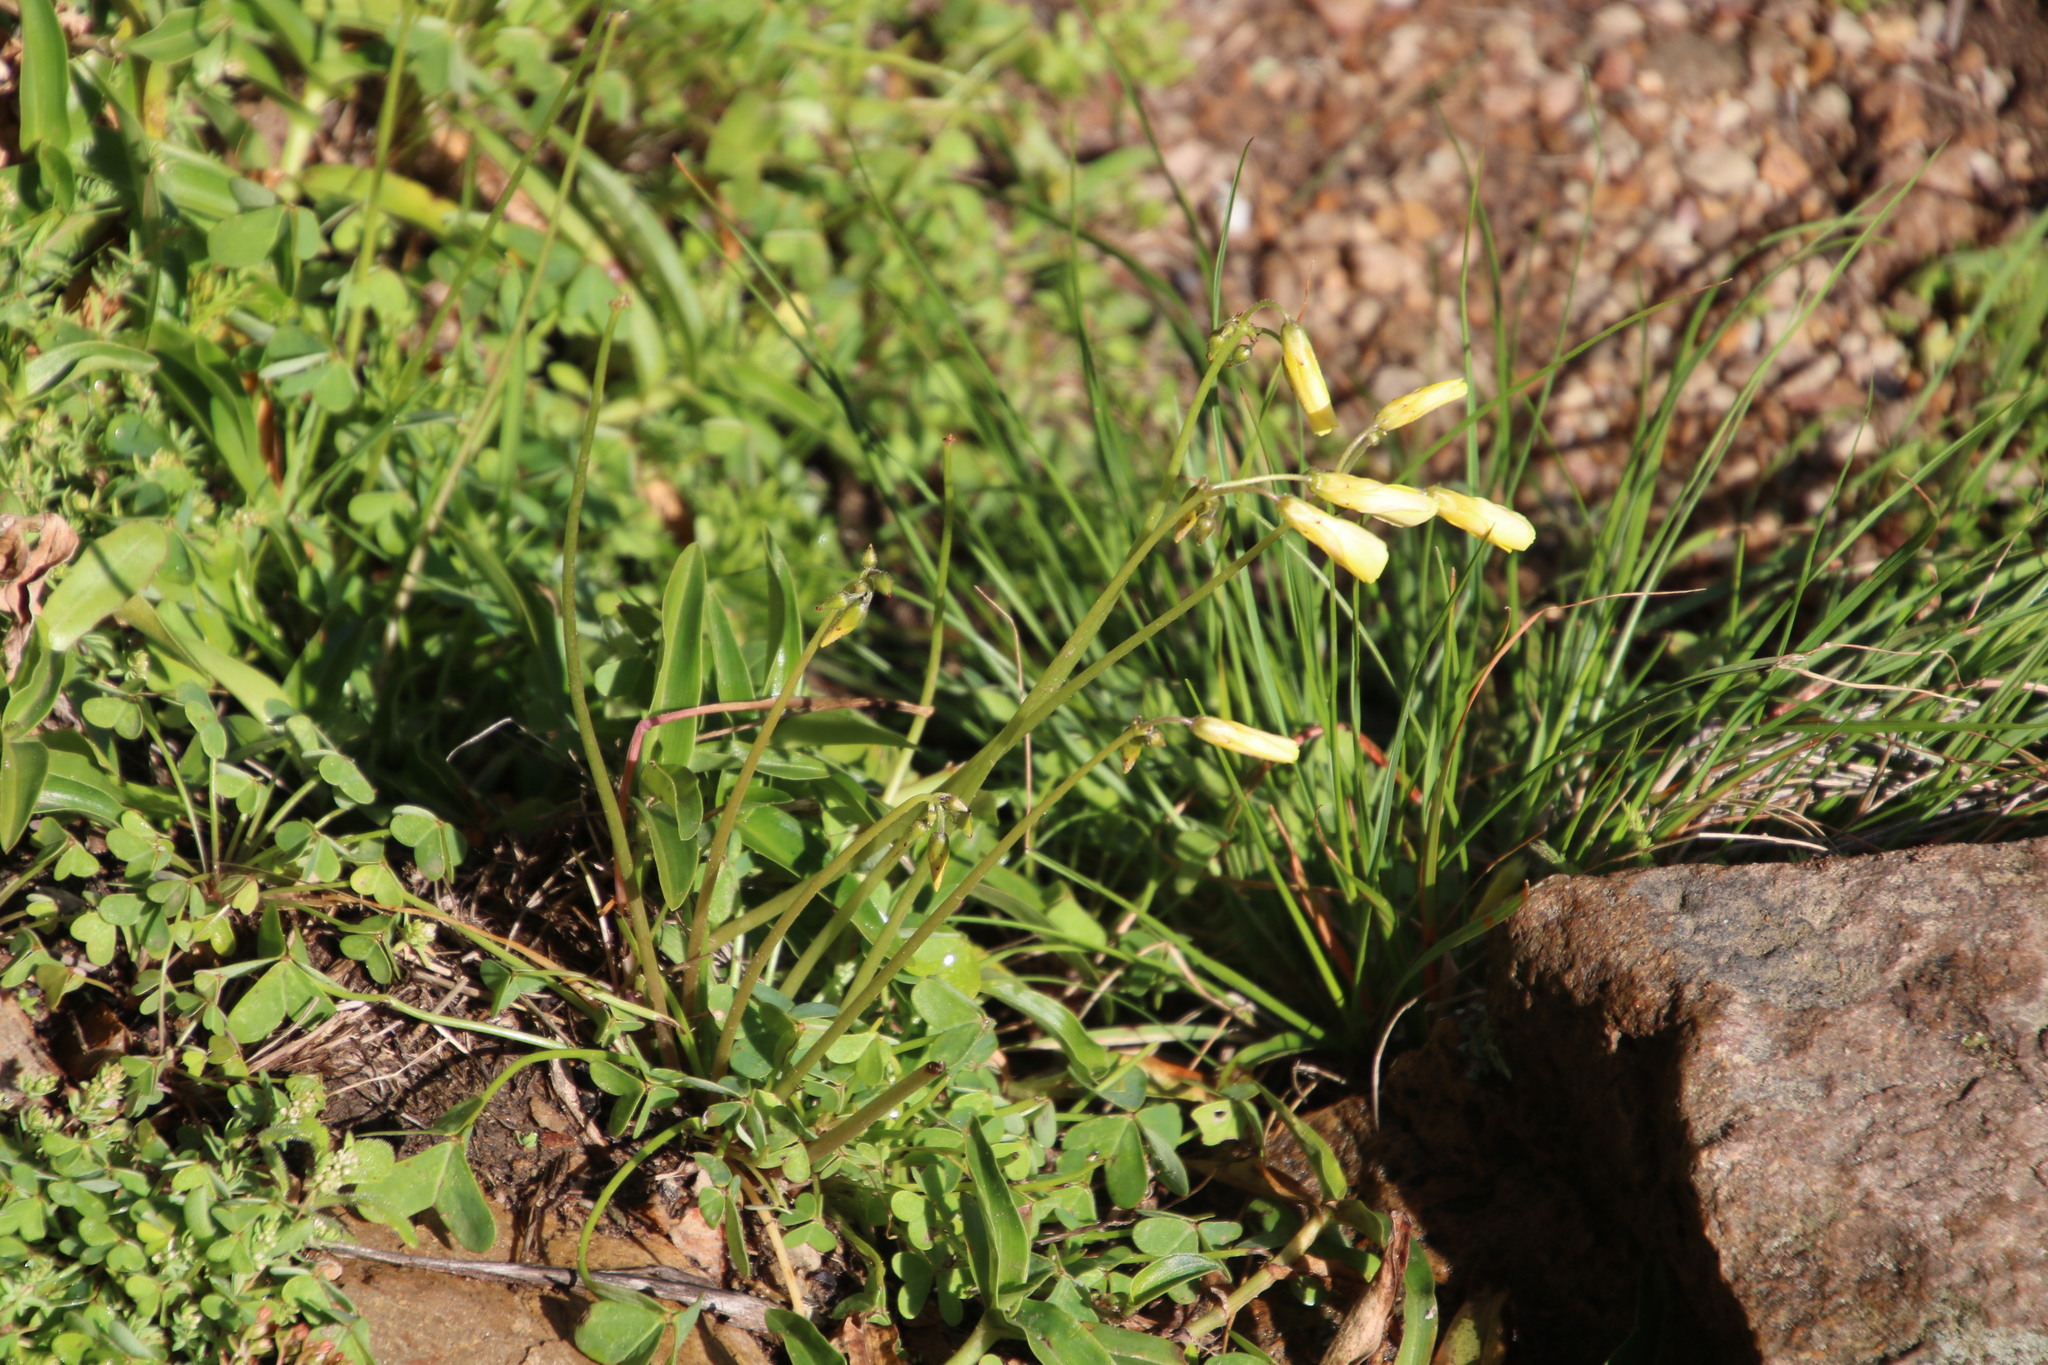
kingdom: Plantae
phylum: Tracheophyta
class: Magnoliopsida
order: Oxalidales
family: Oxalidaceae
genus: Oxalis
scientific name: Oxalis pes-caprae
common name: Bermuda-buttercup
